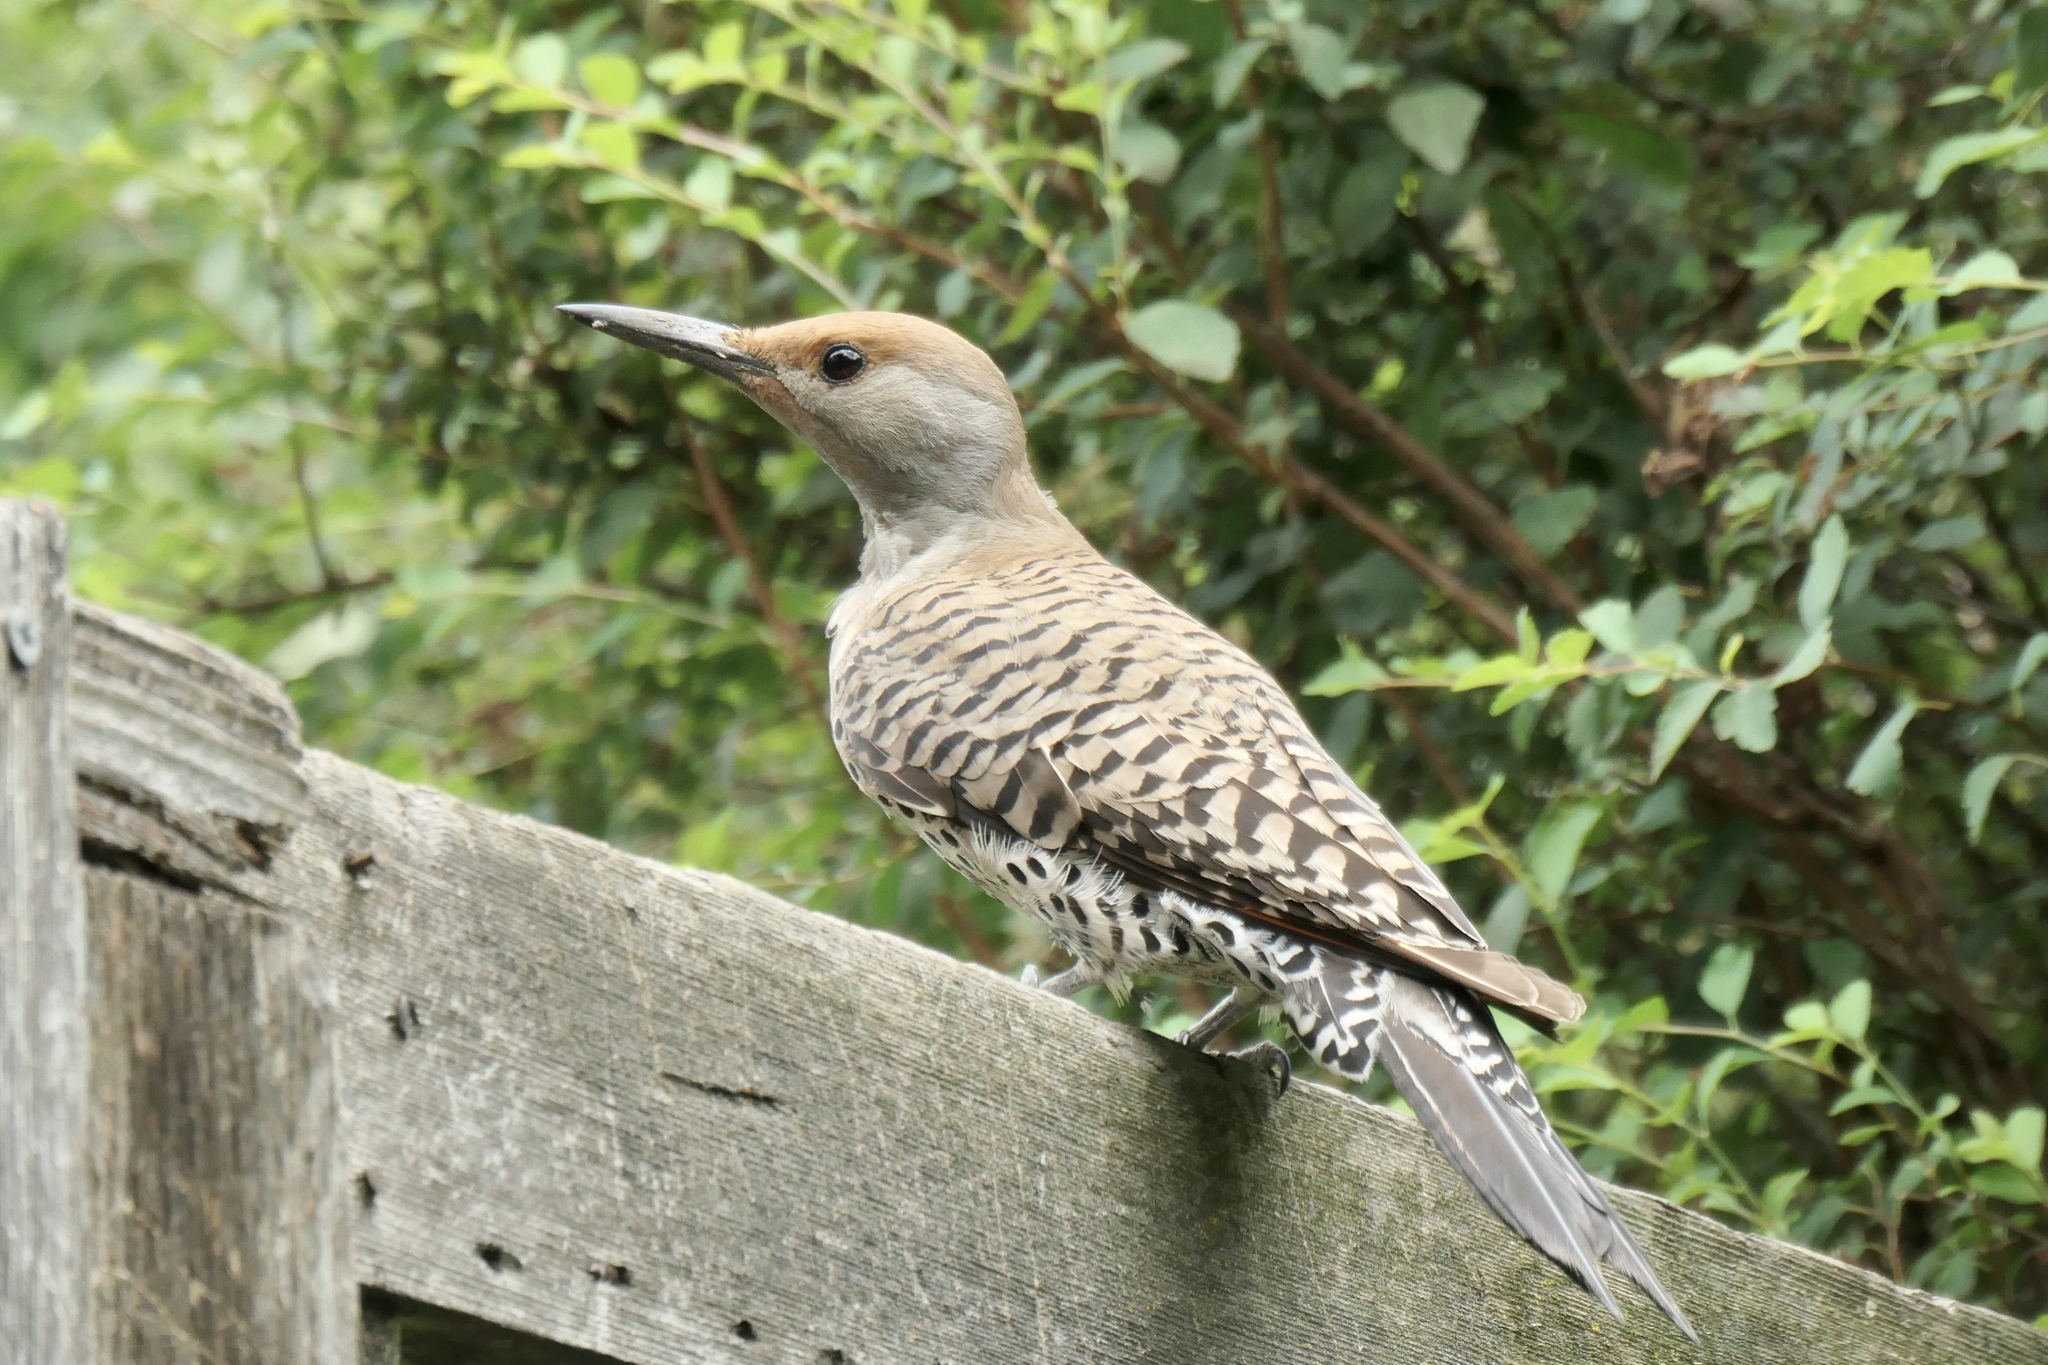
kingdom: Animalia
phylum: Chordata
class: Aves
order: Piciformes
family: Picidae
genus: Colaptes
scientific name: Colaptes auratus
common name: Northern flicker
